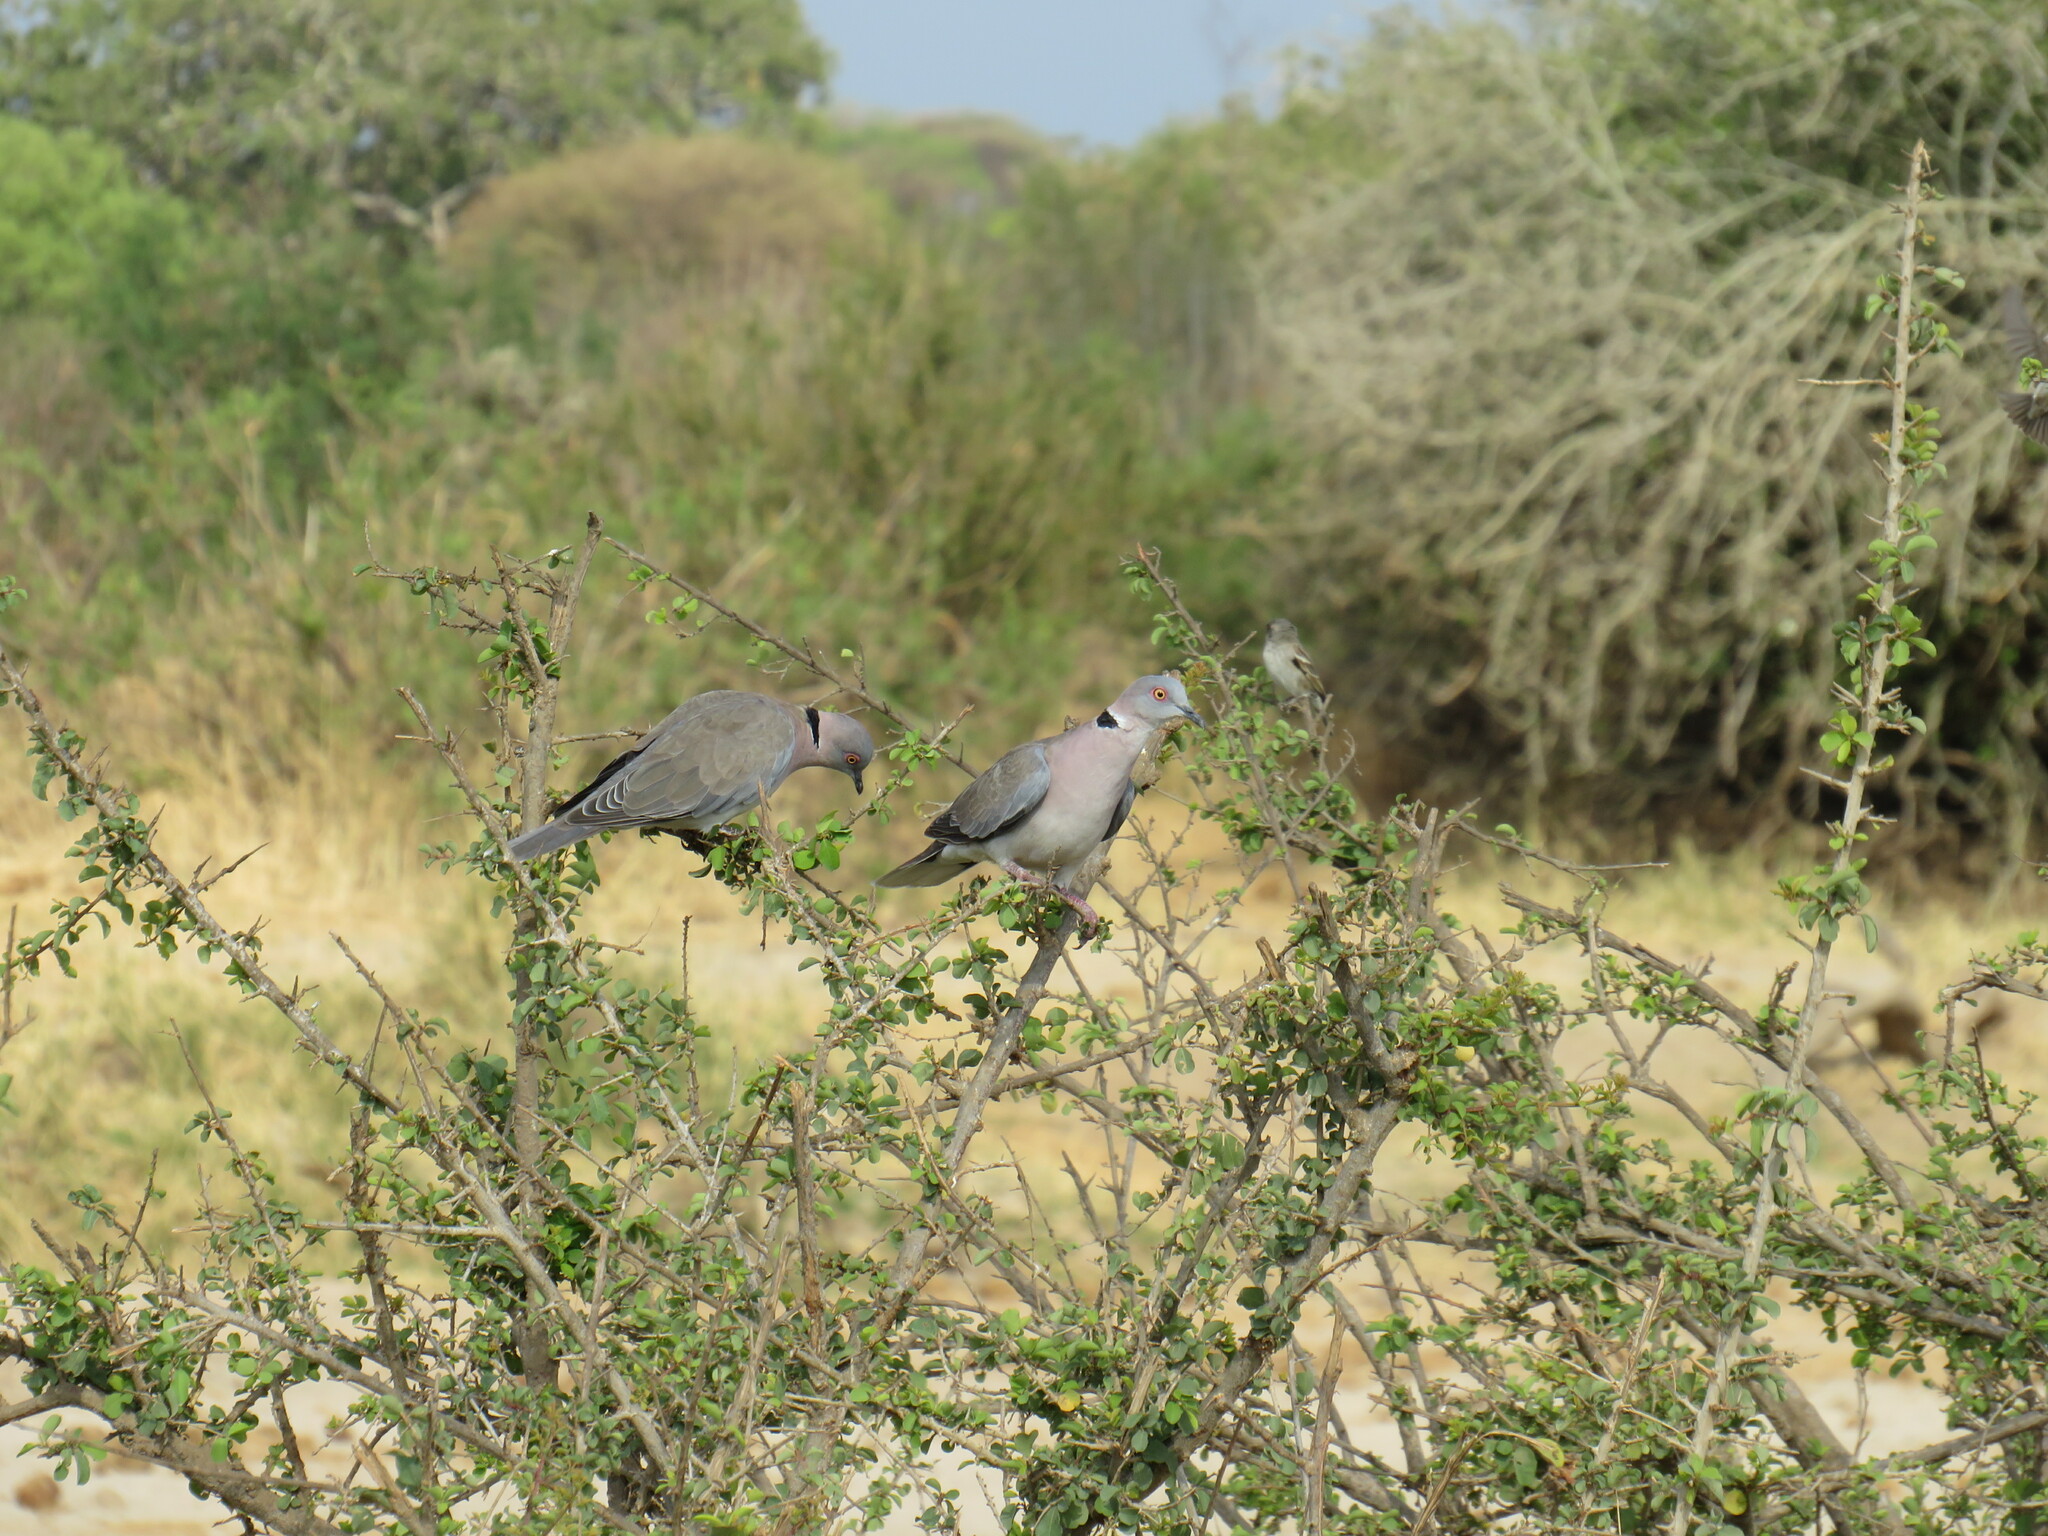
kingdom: Animalia
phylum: Chordata
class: Aves
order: Columbiformes
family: Columbidae
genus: Streptopelia
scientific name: Streptopelia decipiens
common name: Mourning collared dove
